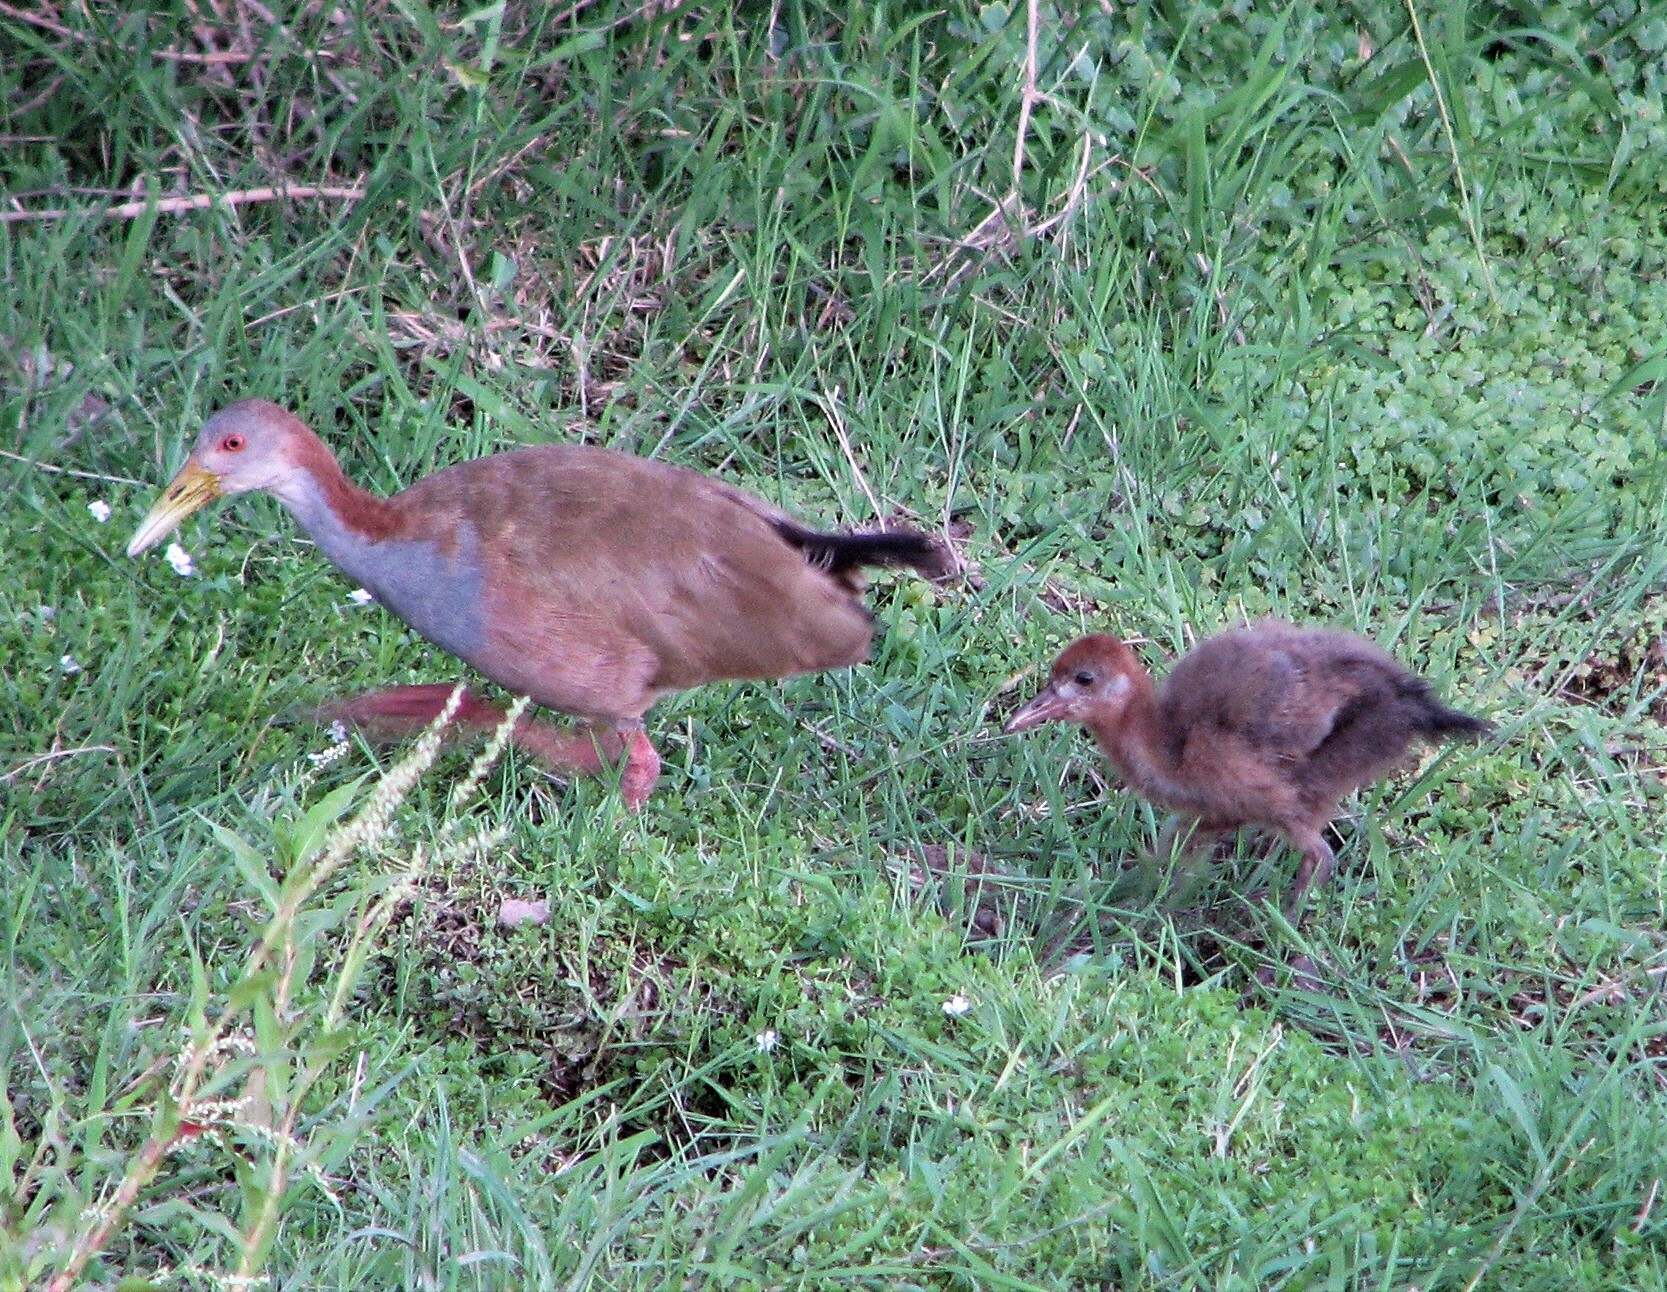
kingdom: Animalia
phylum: Chordata
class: Aves
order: Gruiformes
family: Rallidae
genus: Aramides
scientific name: Aramides ypecaha
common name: Giant wood rail
